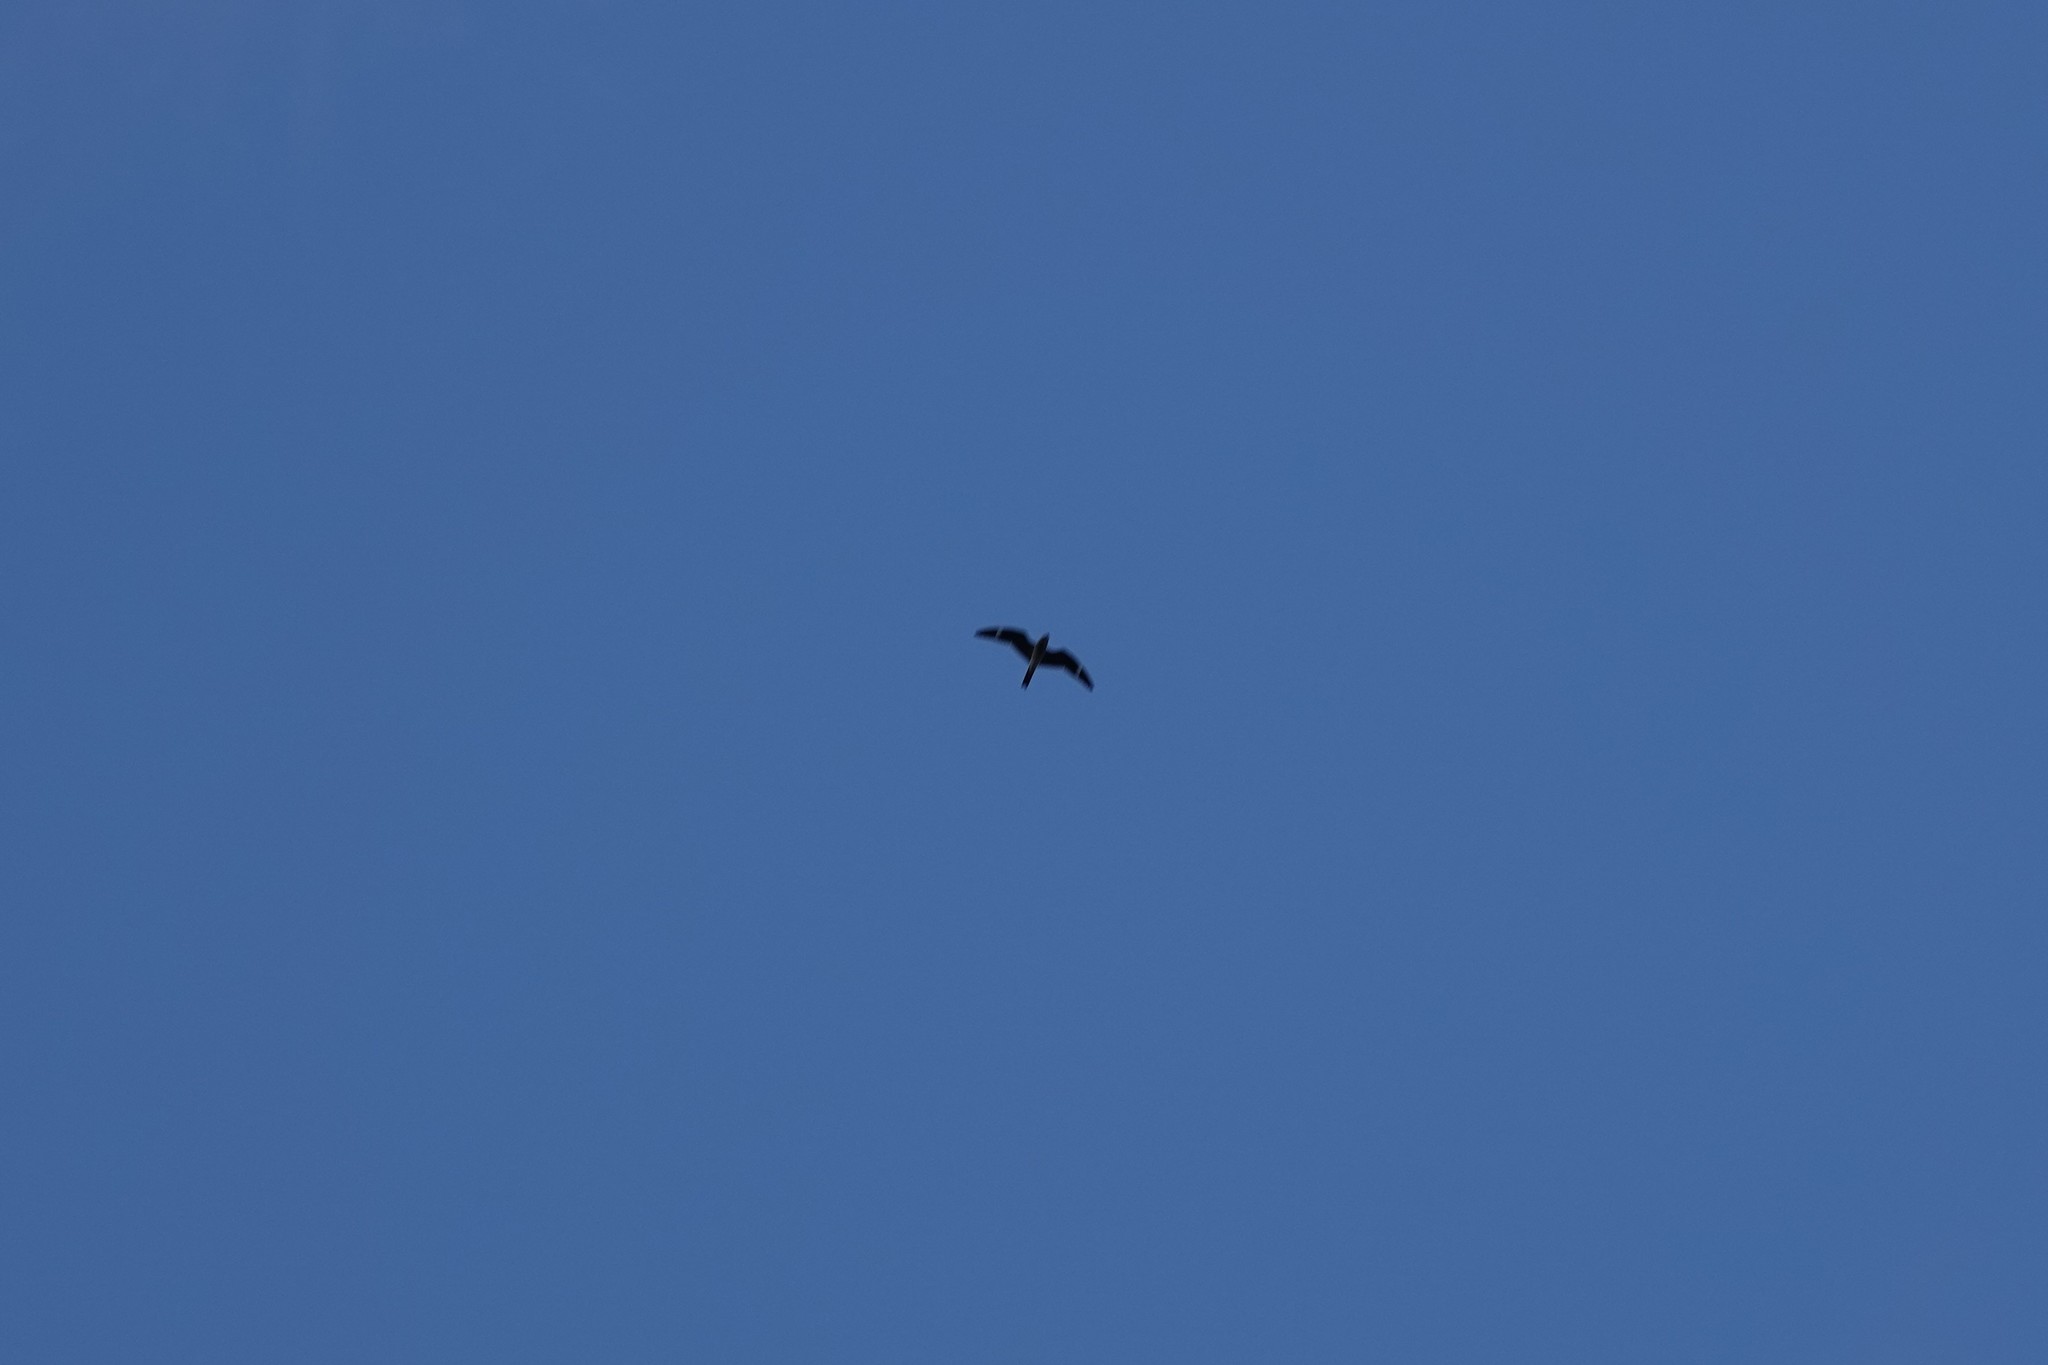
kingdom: Animalia
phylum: Chordata
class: Aves
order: Caprimulgiformes
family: Caprimulgidae
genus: Chordeiles
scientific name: Chordeiles minor
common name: Common nighthawk
